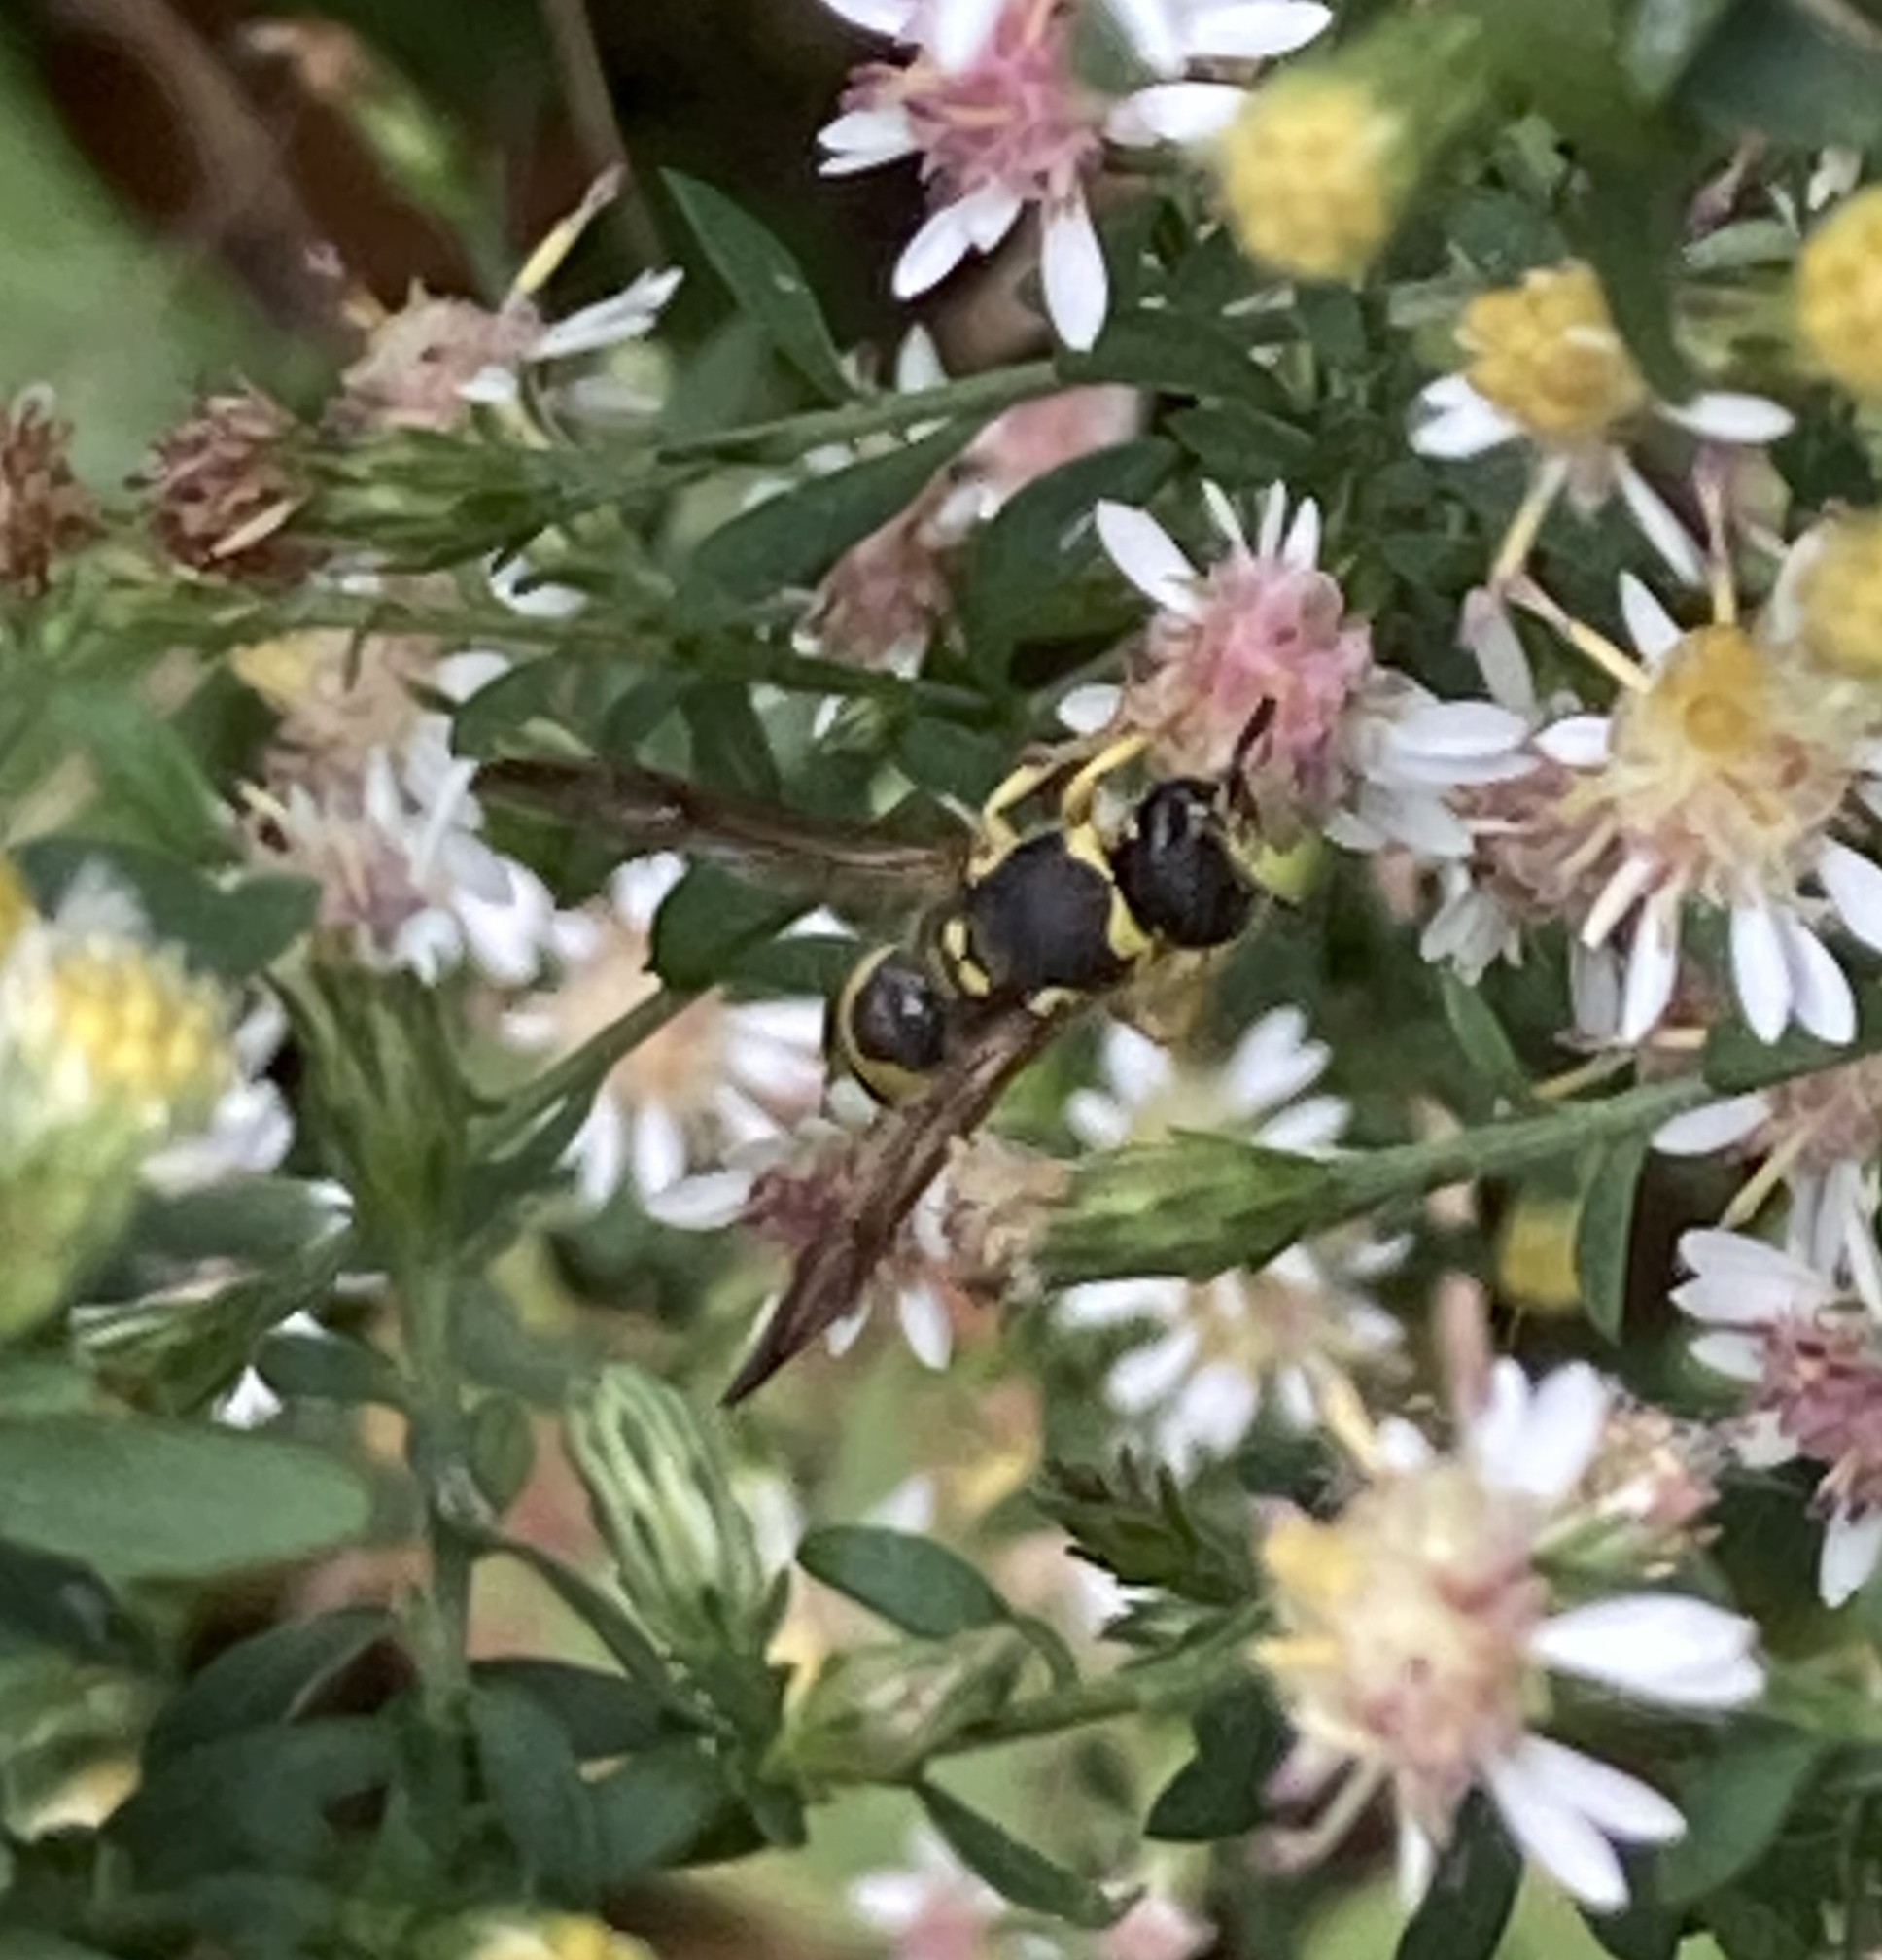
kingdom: Animalia
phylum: Arthropoda
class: Insecta
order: Hymenoptera
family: Vespidae
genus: Ancistrocerus
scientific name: Ancistrocerus gazella
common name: European tube wasp
